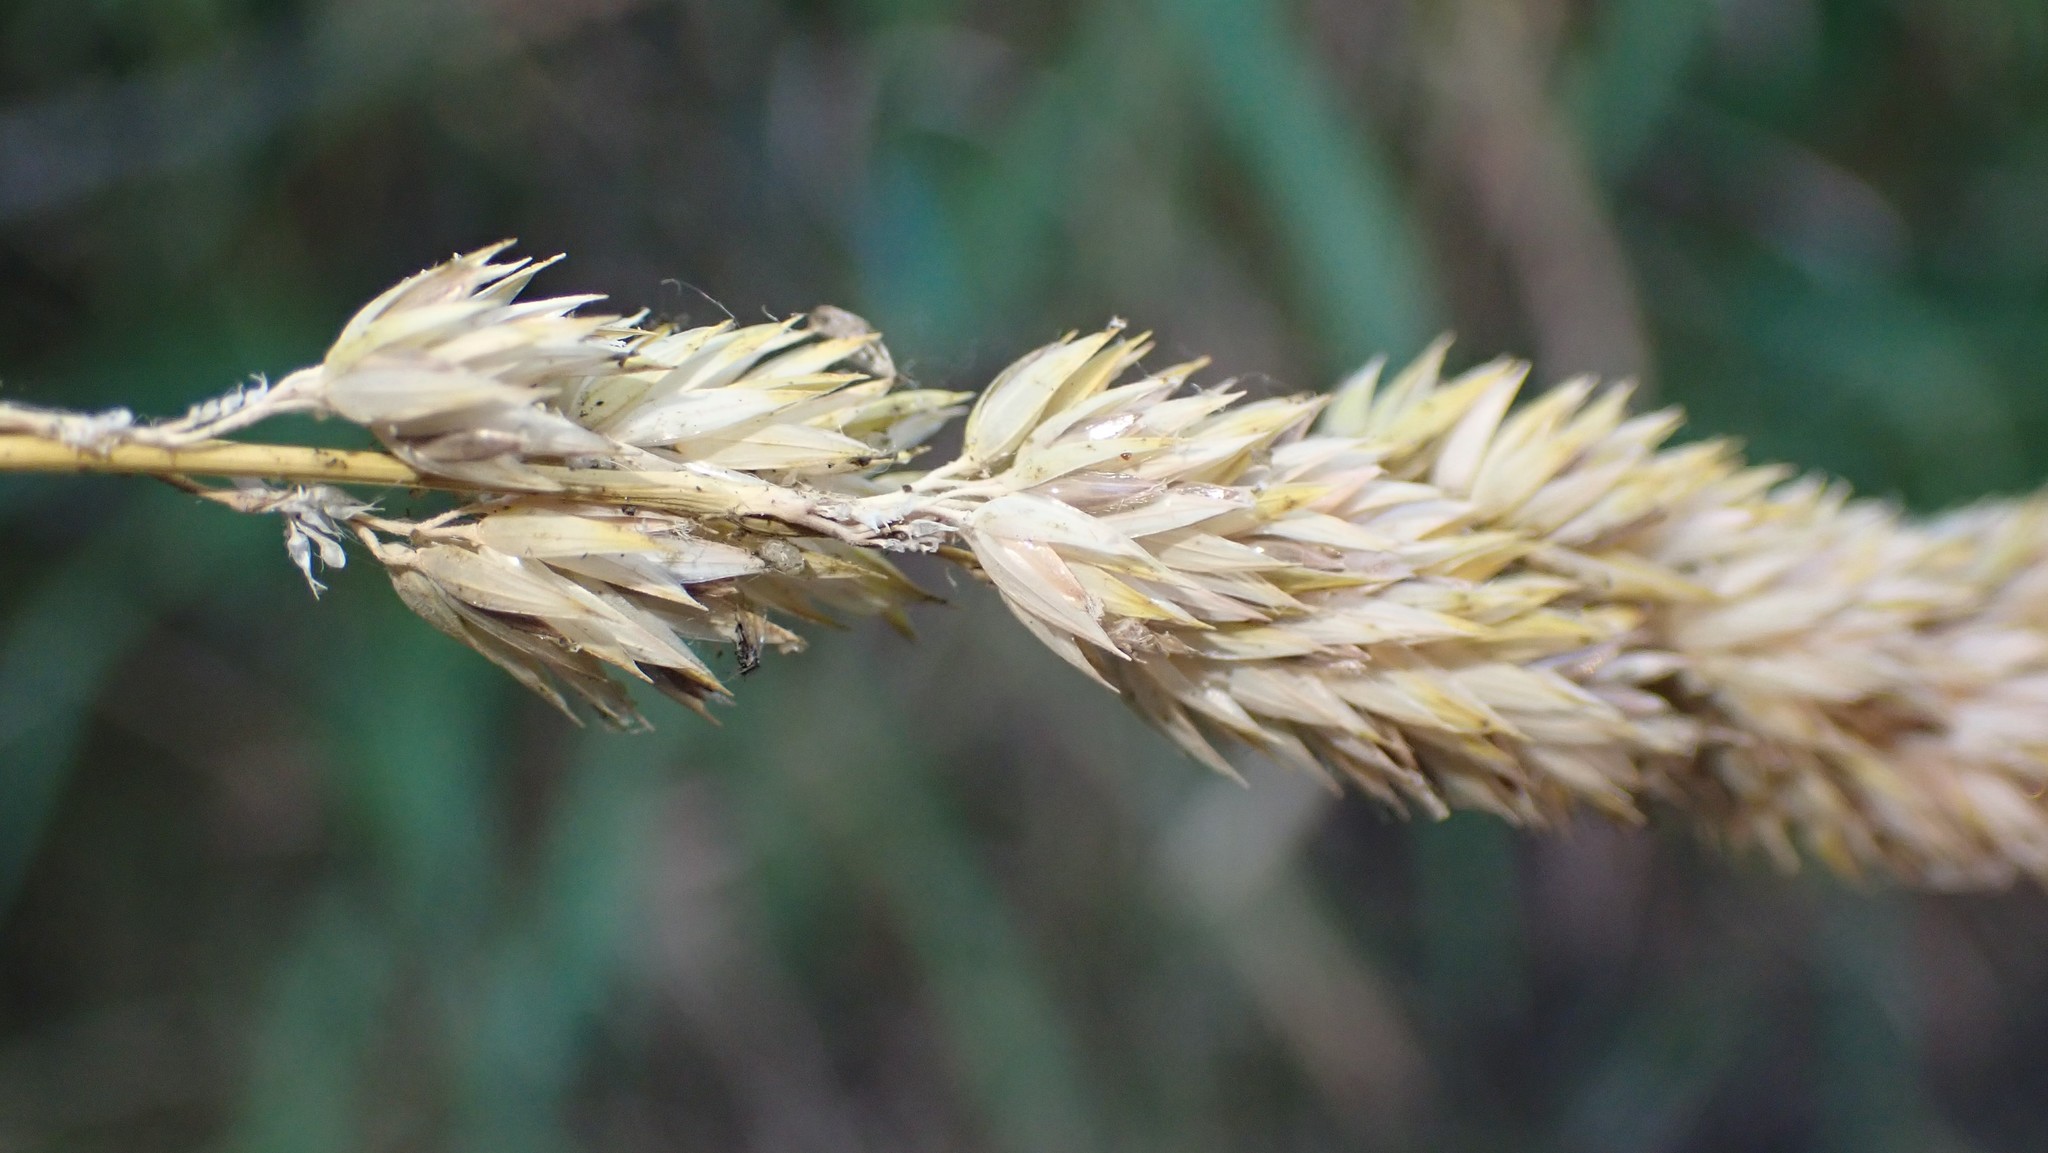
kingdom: Plantae
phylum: Tracheophyta
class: Liliopsida
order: Poales
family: Poaceae
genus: Phalaris
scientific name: Phalaris arundinacea
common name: Reed canary-grass
